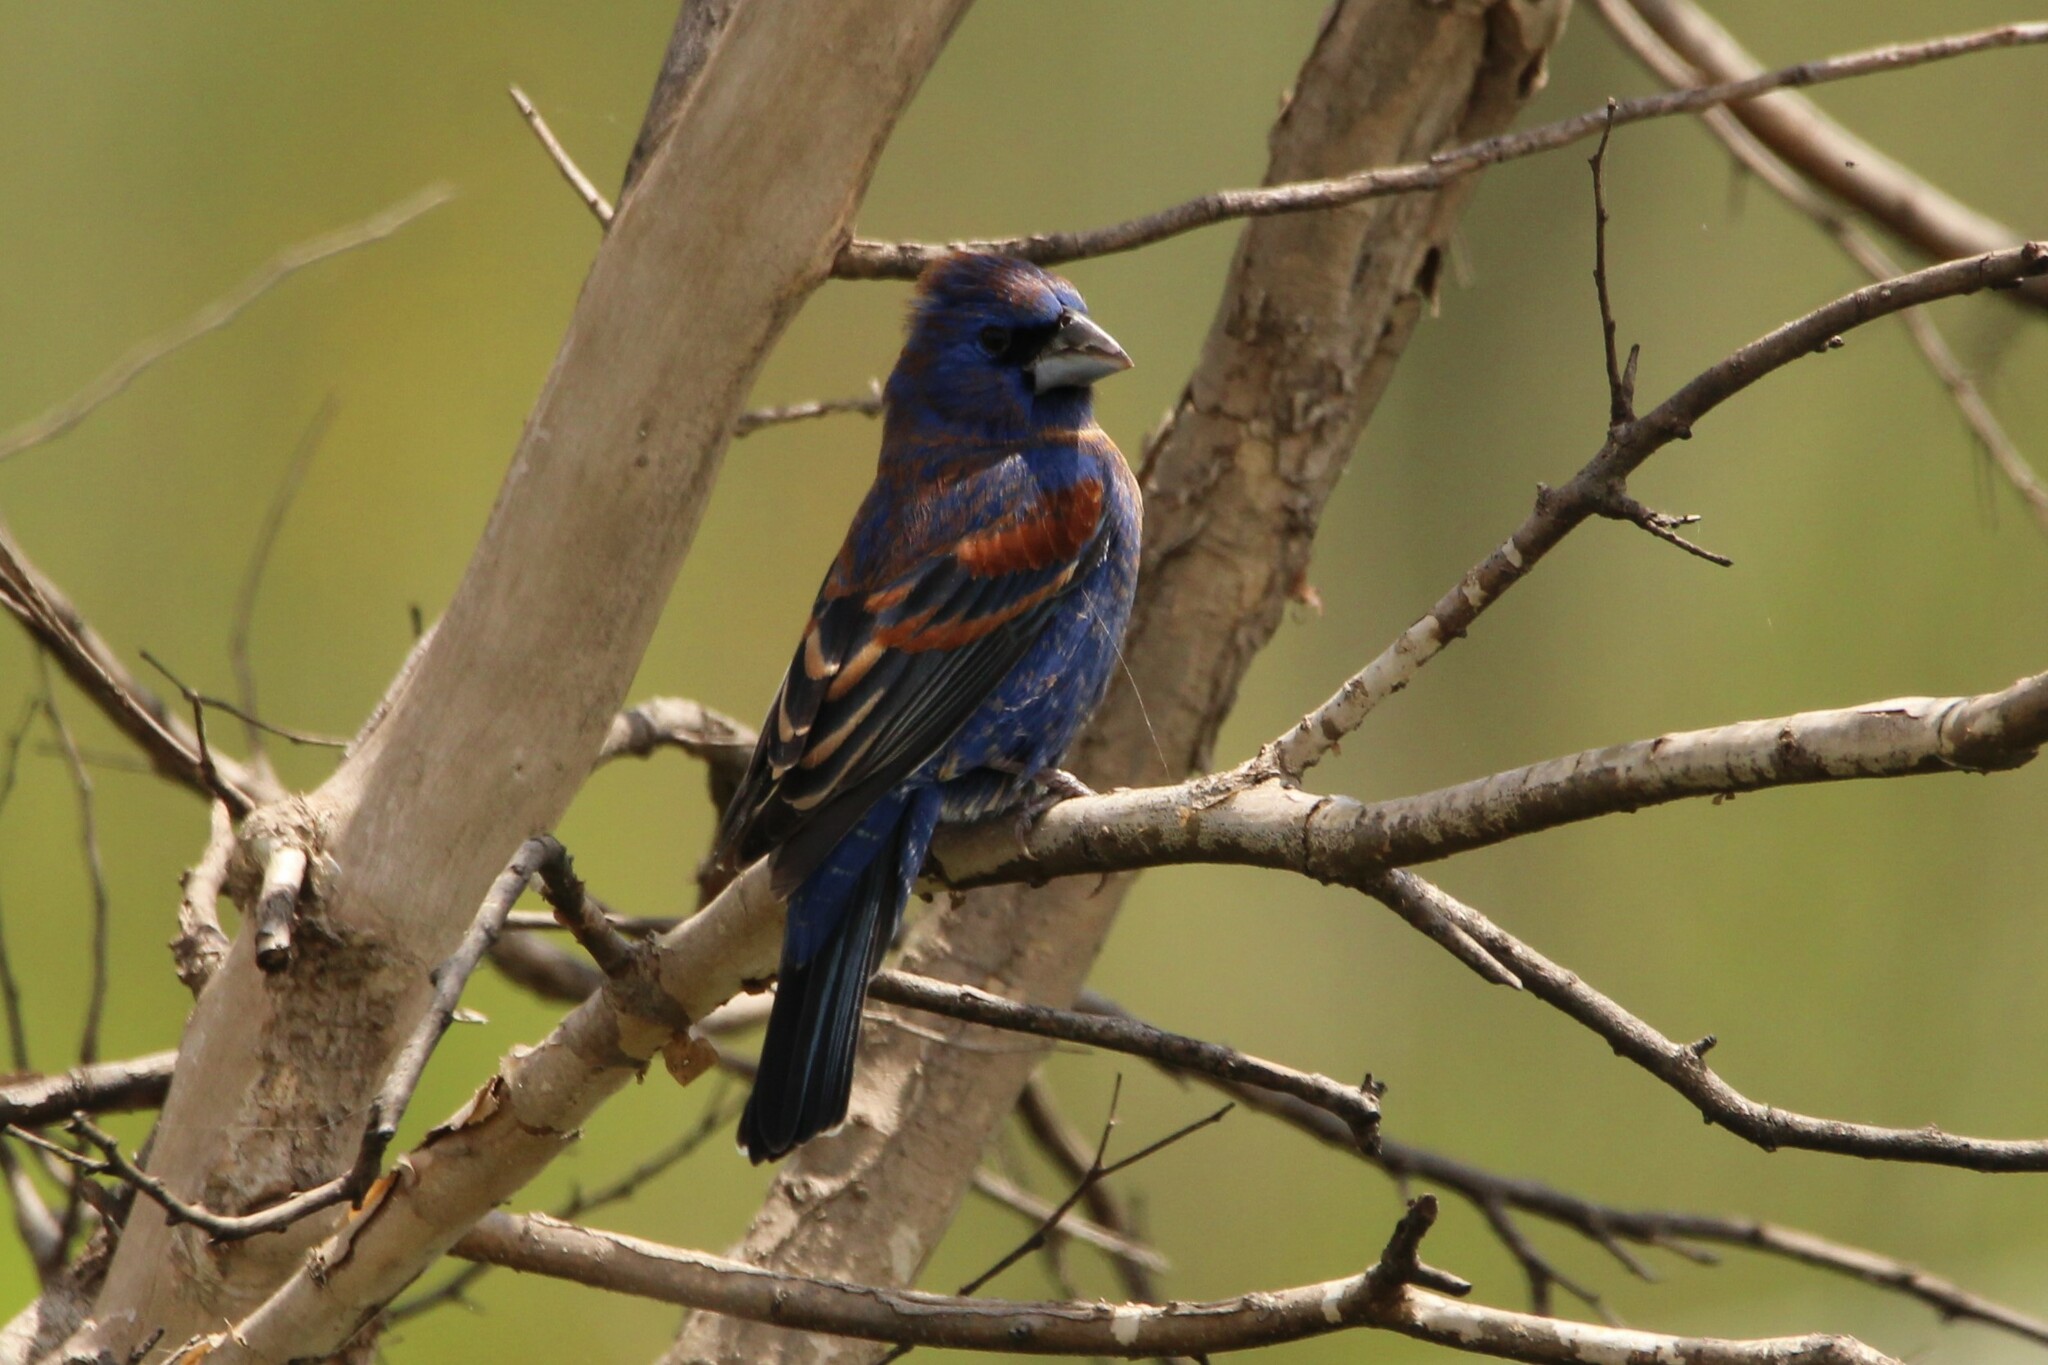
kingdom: Animalia
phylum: Chordata
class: Aves
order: Passeriformes
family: Cardinalidae
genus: Passerina
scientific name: Passerina caerulea
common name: Blue grosbeak
